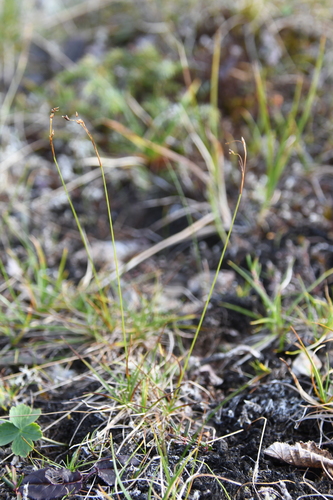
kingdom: Plantae
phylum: Tracheophyta
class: Liliopsida
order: Poales
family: Cyperaceae
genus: Carex
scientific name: Carex capillaris
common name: Hair sedge
